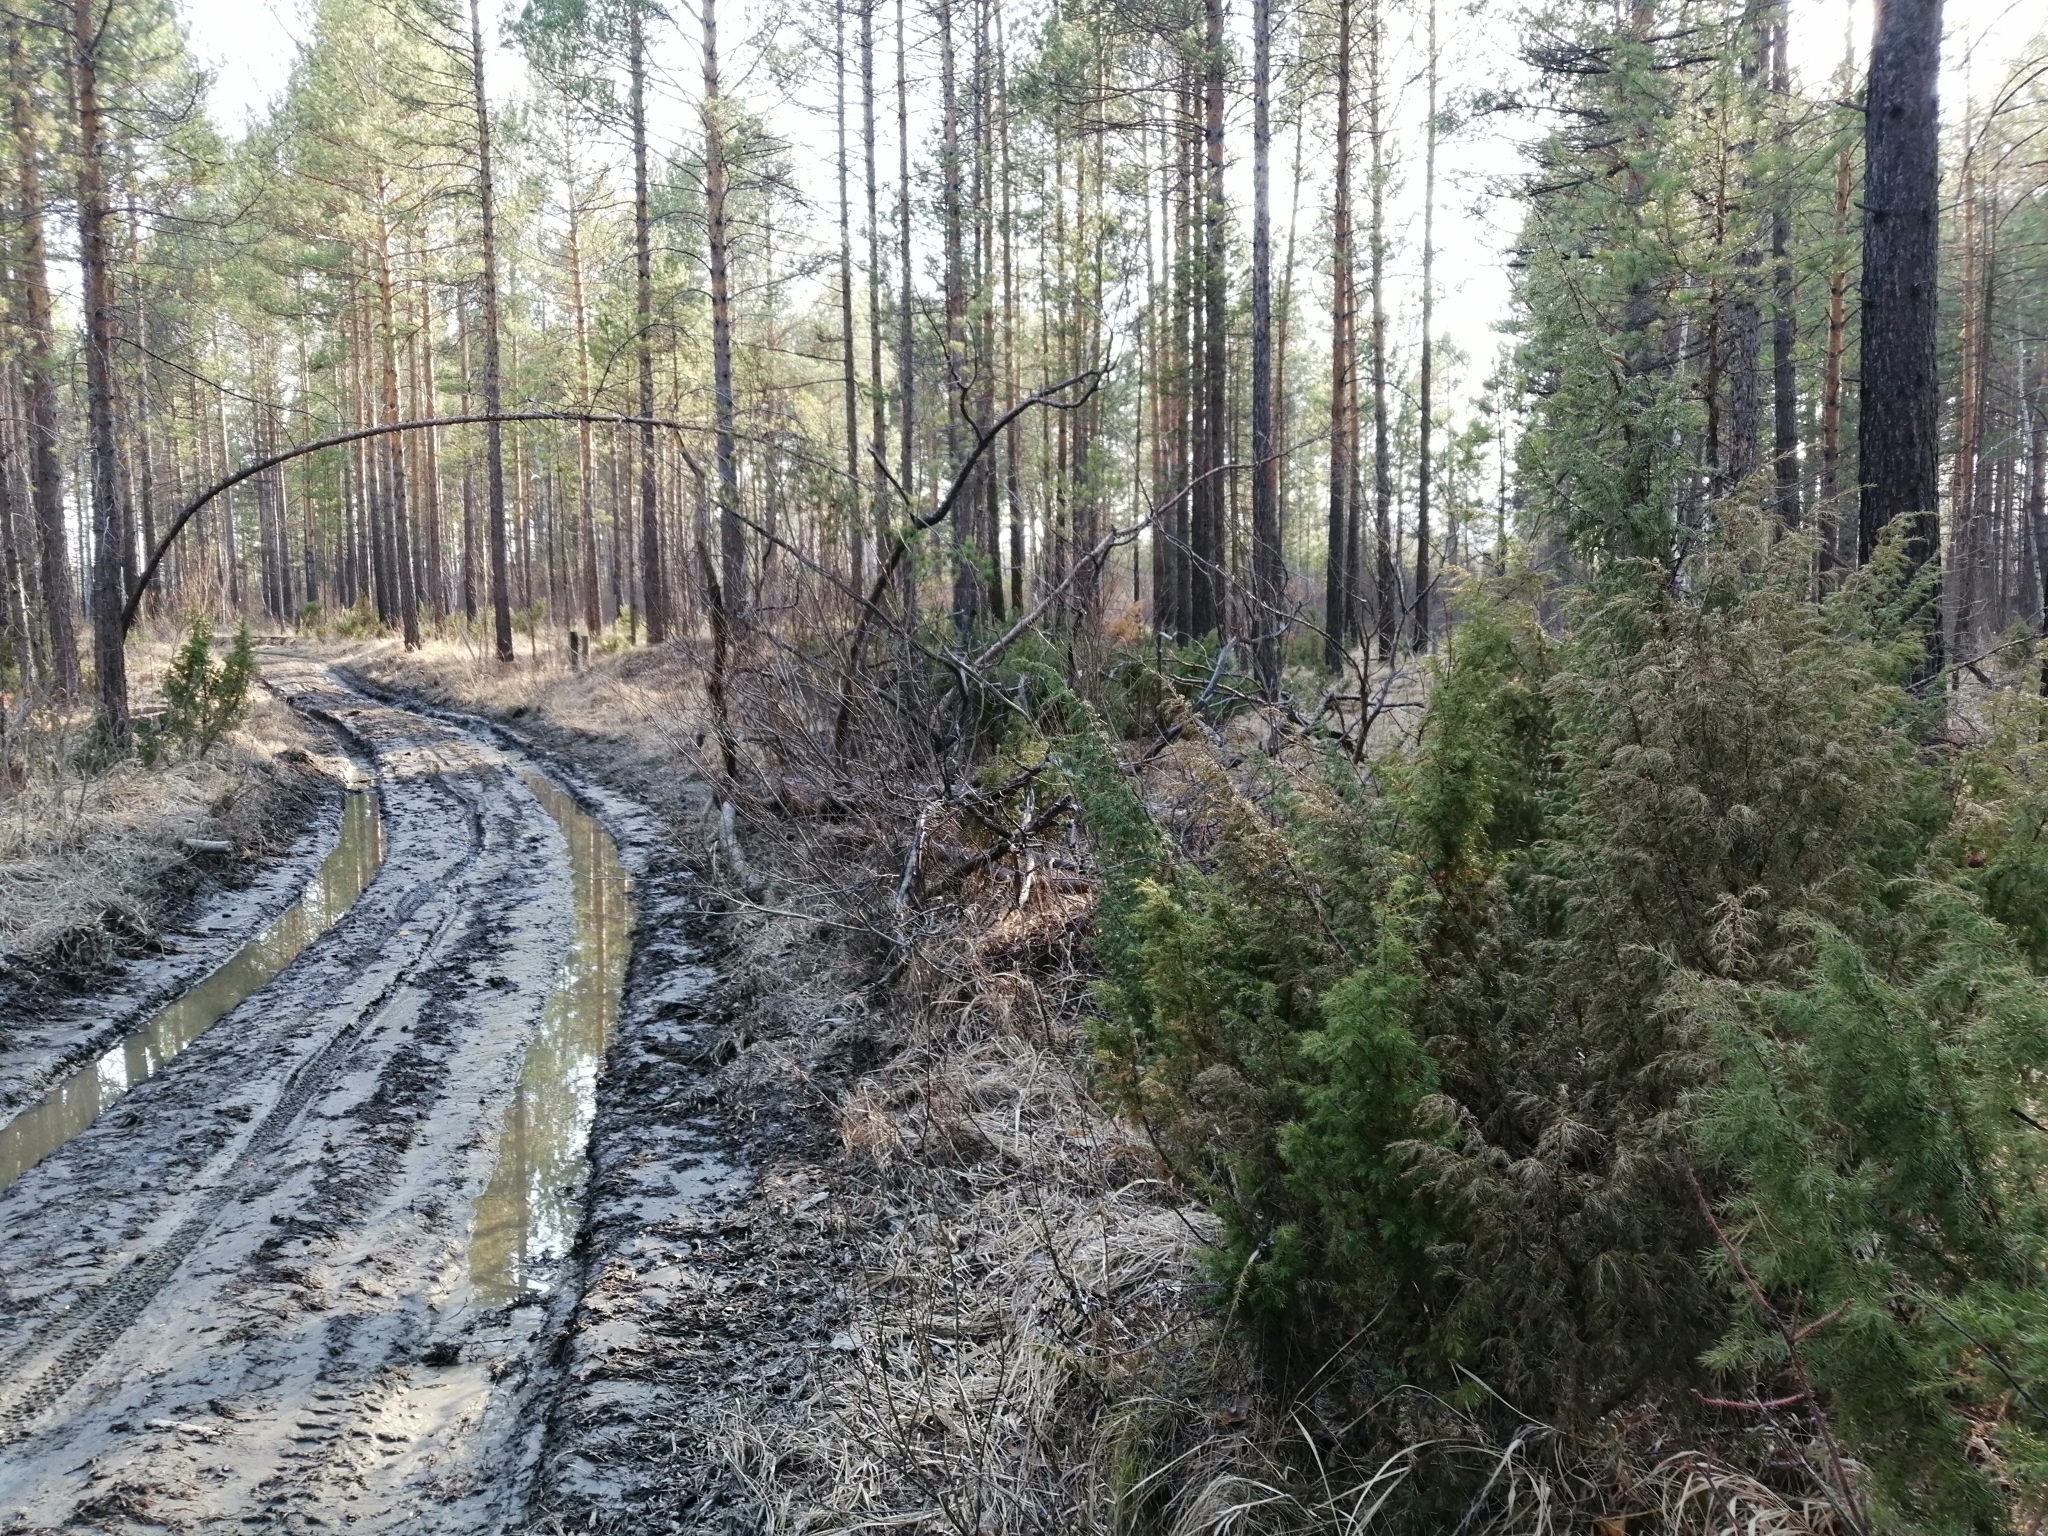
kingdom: Plantae
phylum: Tracheophyta
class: Pinopsida
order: Pinales
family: Cupressaceae
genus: Juniperus
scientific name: Juniperus communis
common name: Common juniper
